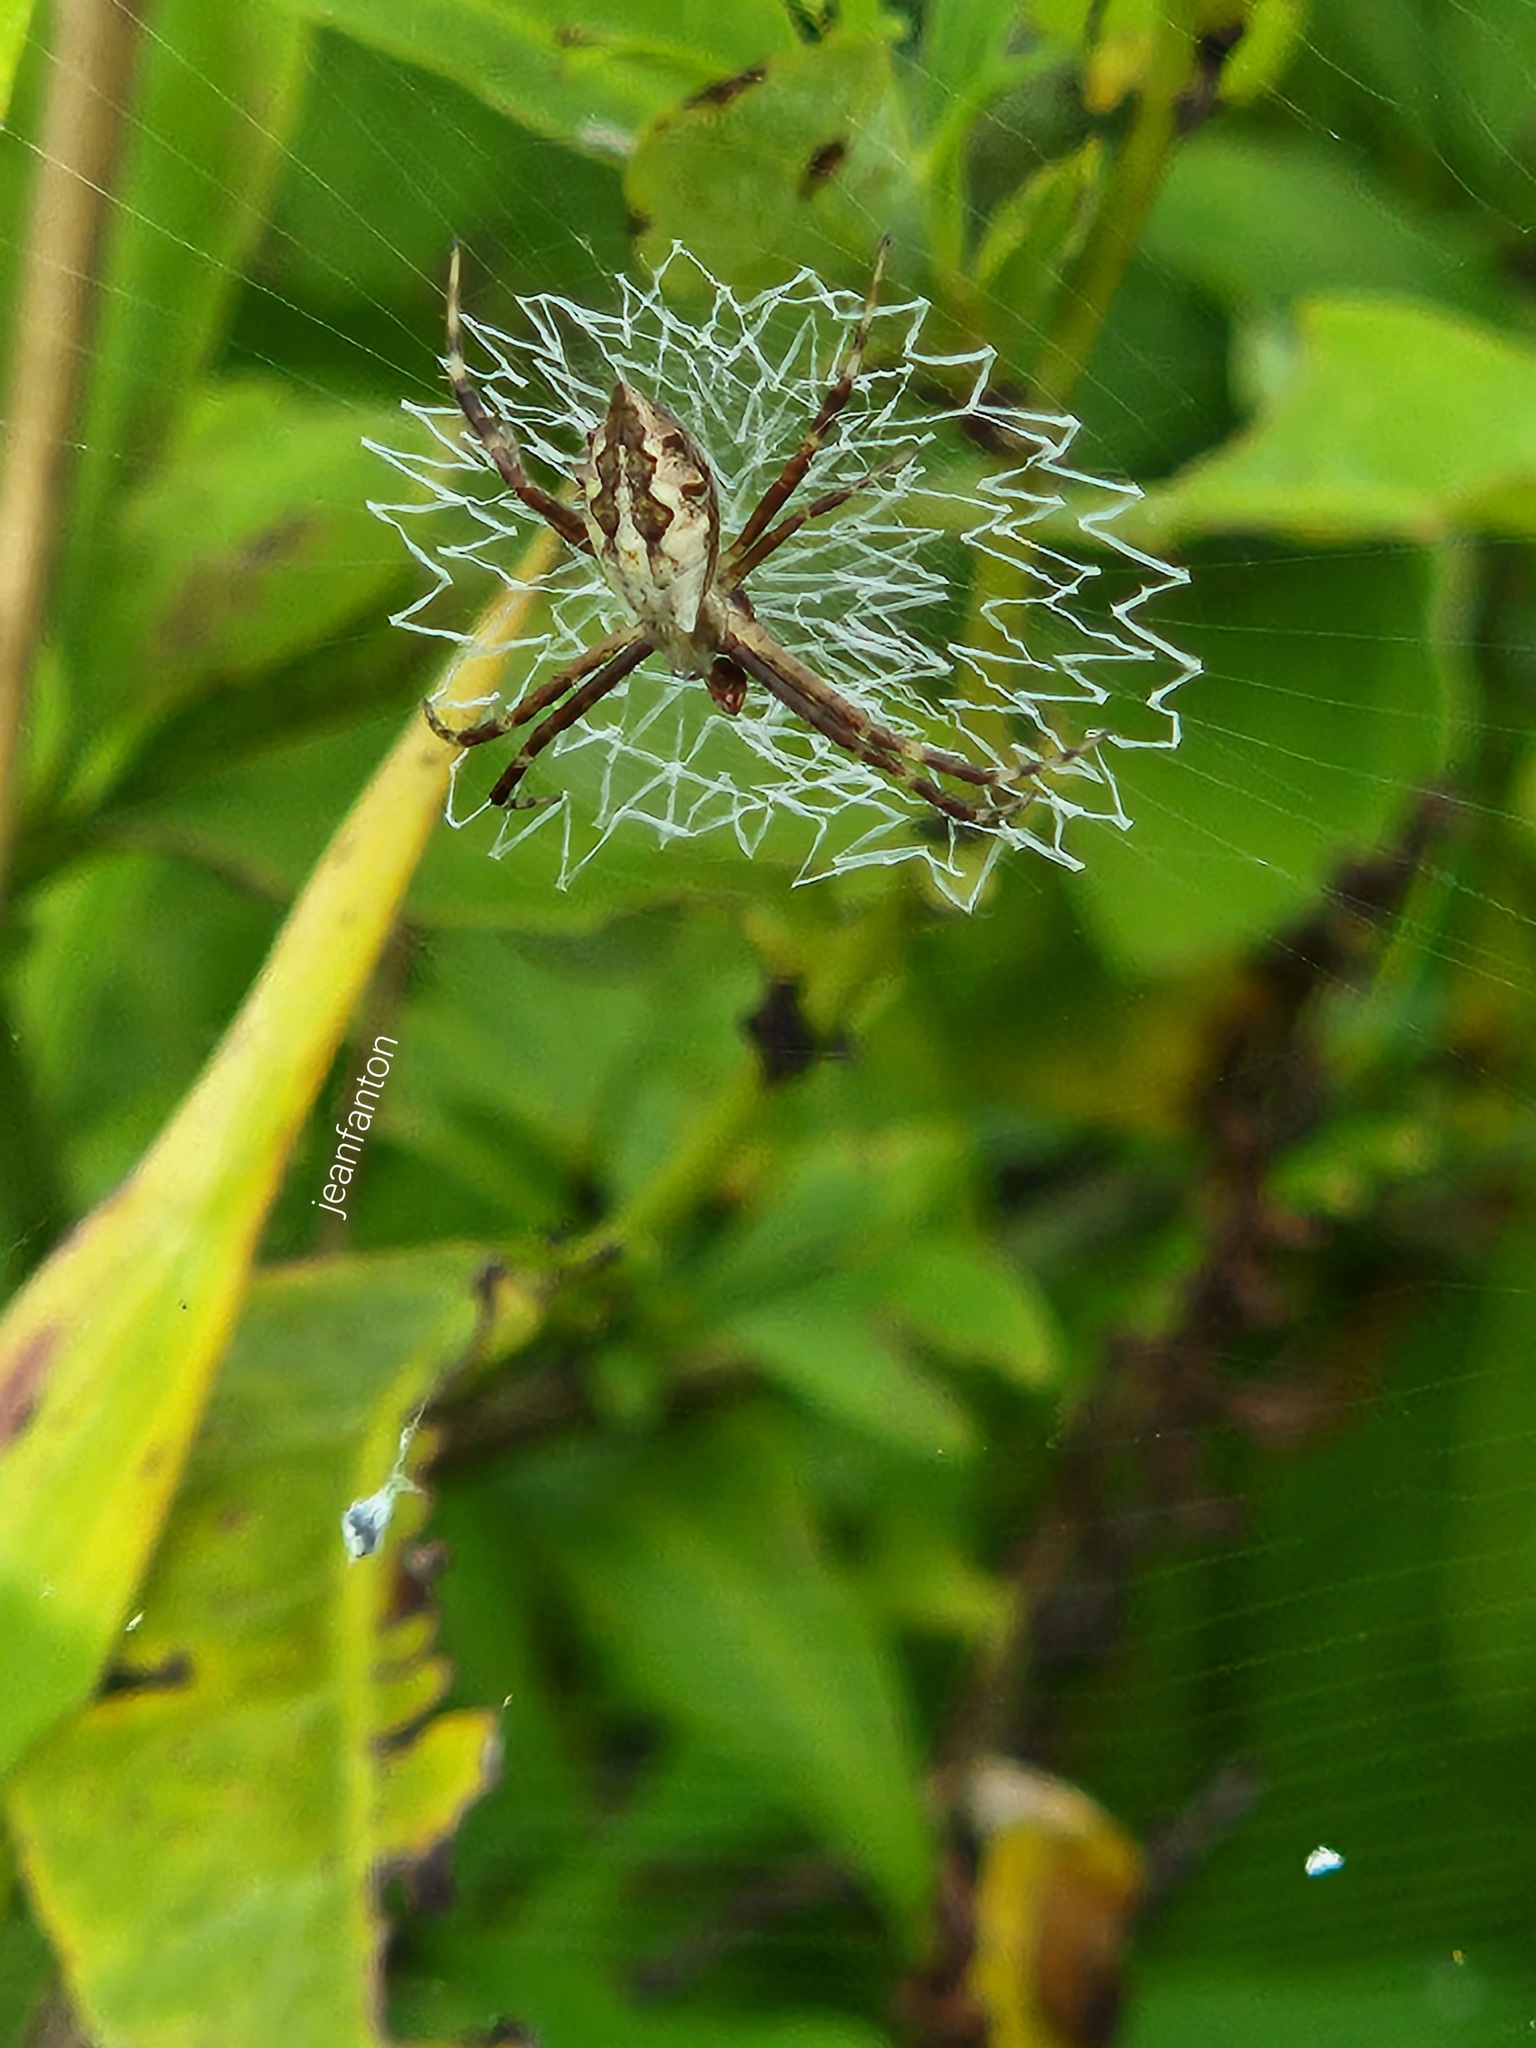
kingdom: Animalia
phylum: Arthropoda
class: Arachnida
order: Araneae
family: Araneidae
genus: Argiope
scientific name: Argiope argentata
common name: Orb weavers
